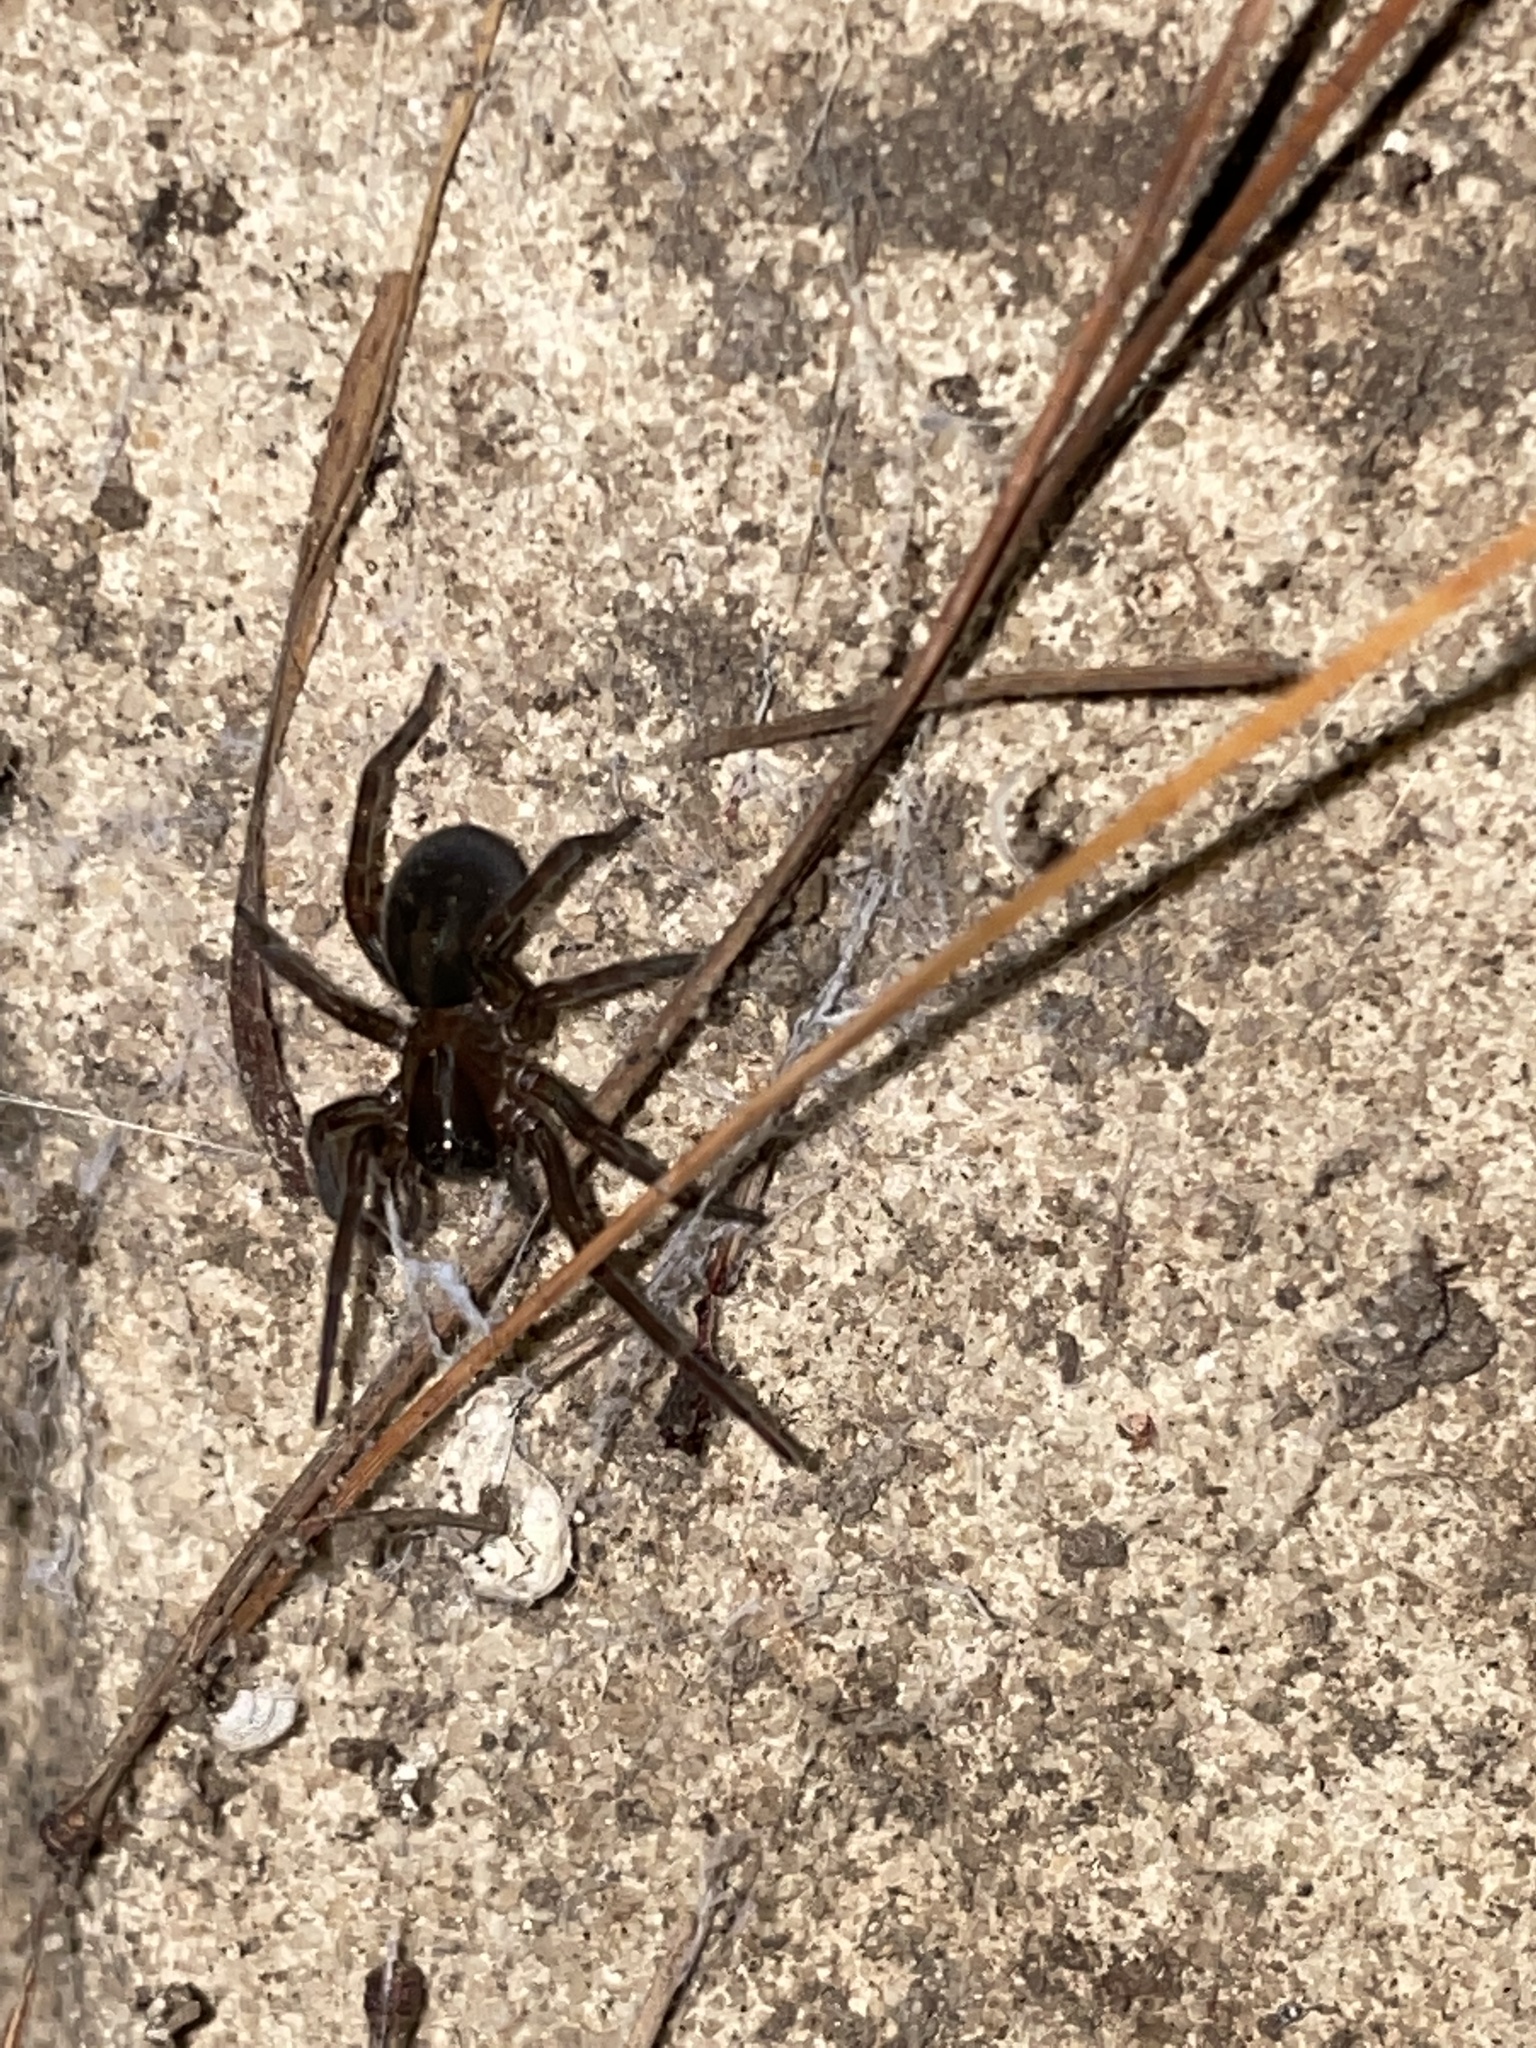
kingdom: Animalia
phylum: Arthropoda
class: Arachnida
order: Araneae
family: Amaurobiidae
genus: Amaurobius
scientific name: Amaurobius ferox
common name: Black laceweaver
